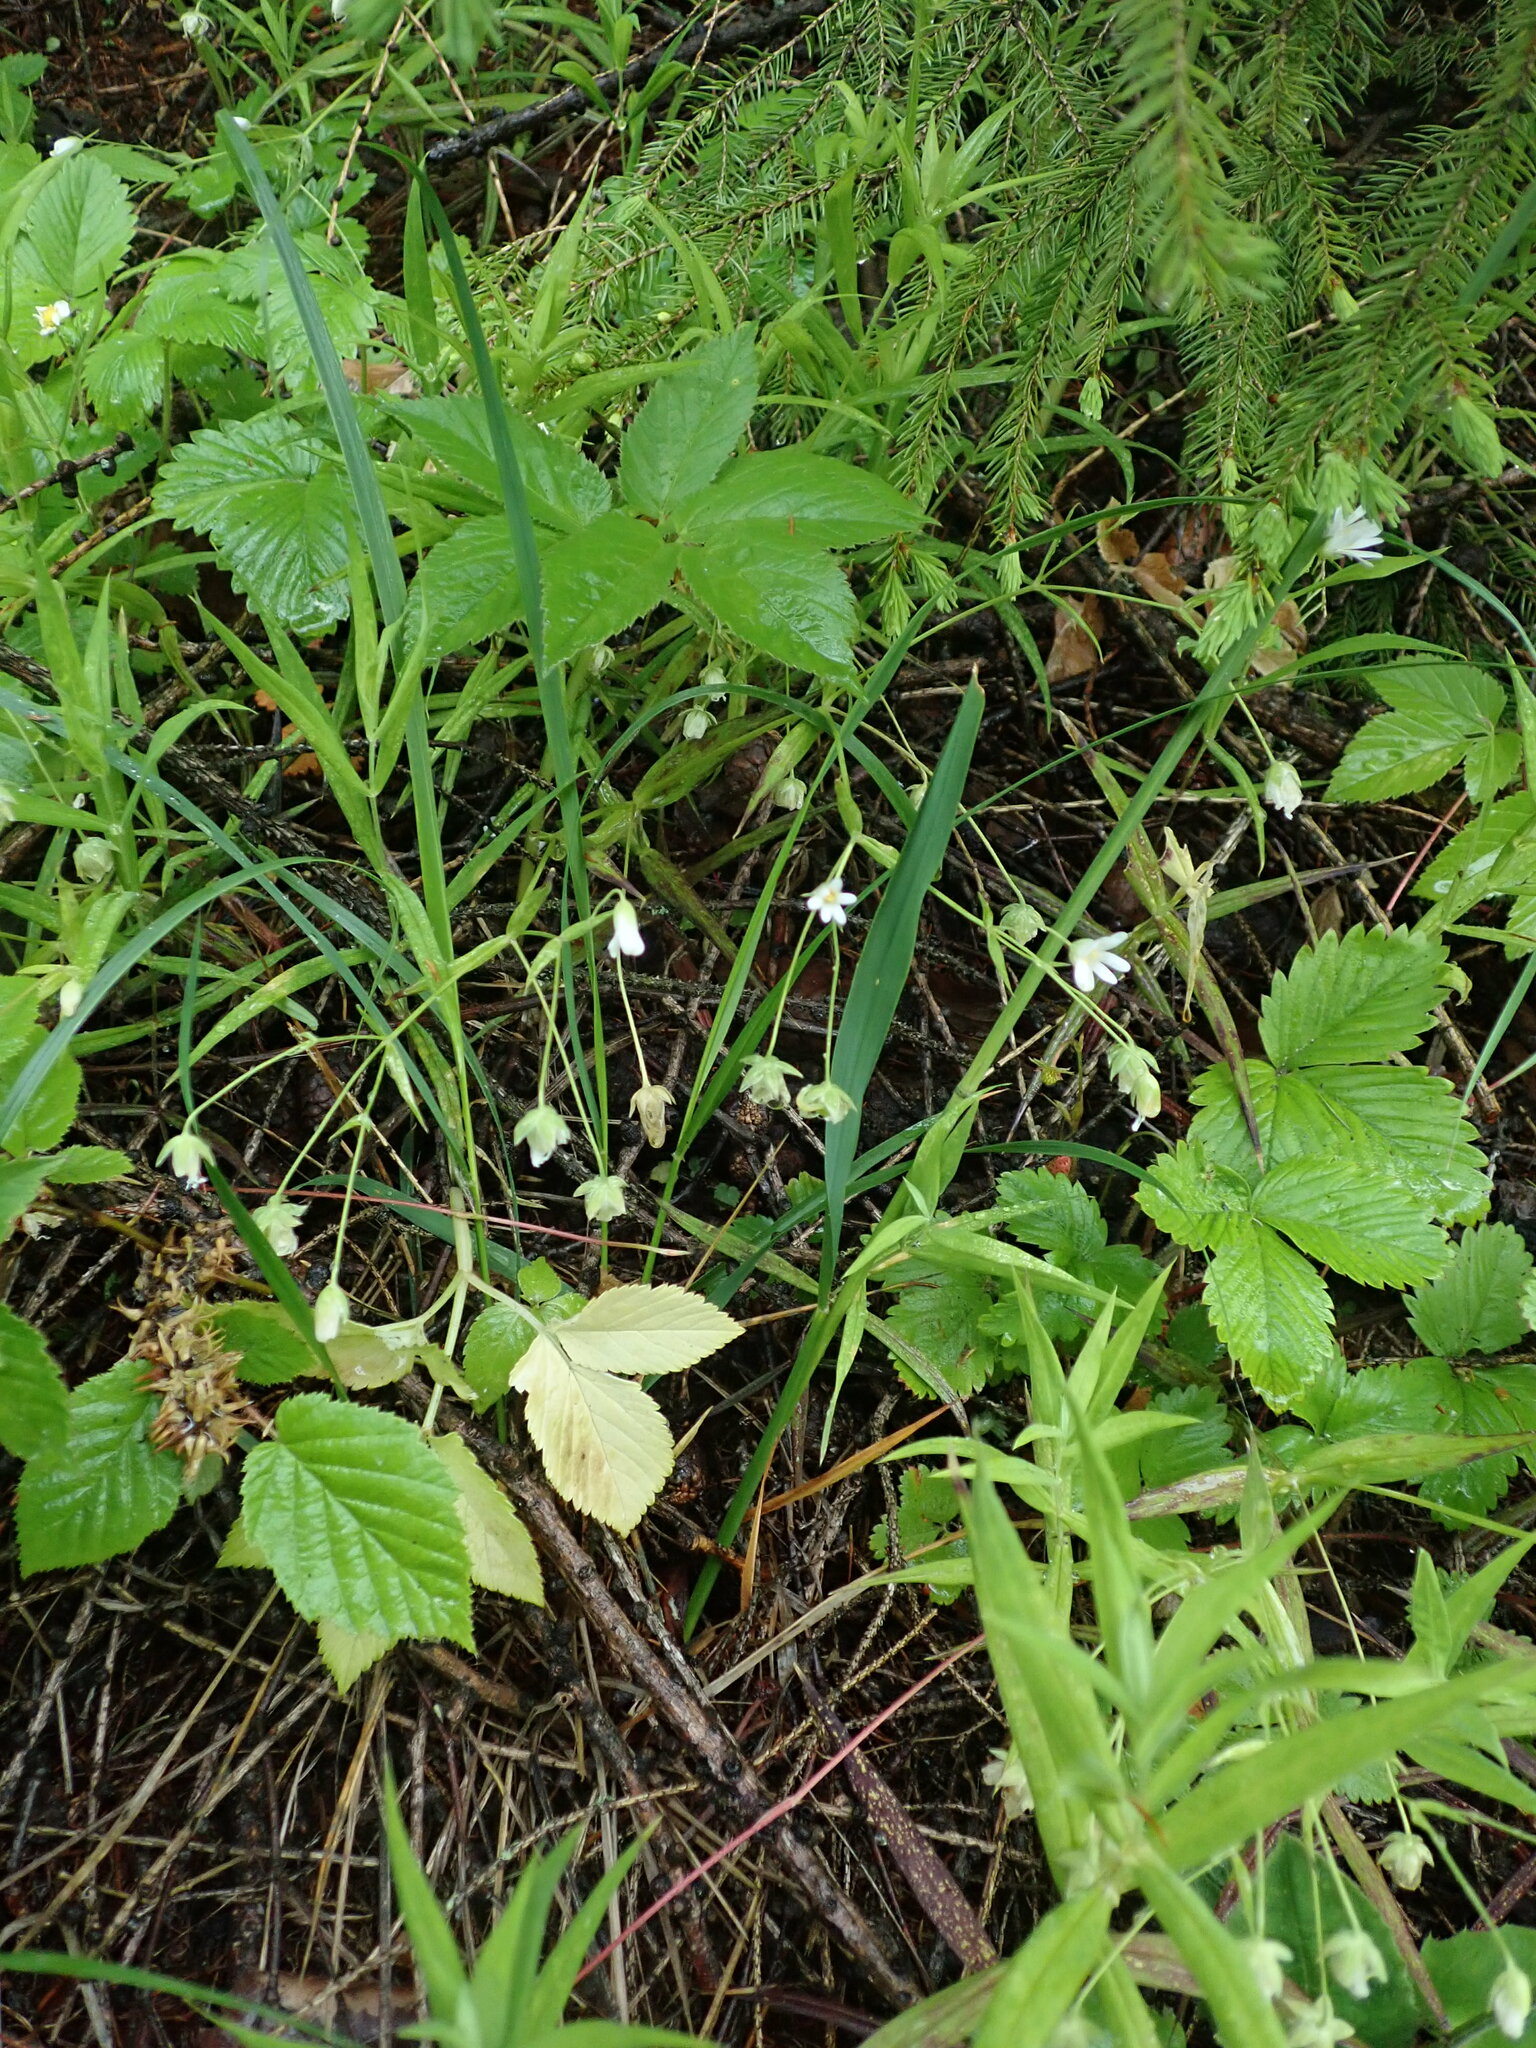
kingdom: Plantae
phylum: Tracheophyta
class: Magnoliopsida
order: Caryophyllales
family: Caryophyllaceae
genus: Rabelera
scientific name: Rabelera holostea
